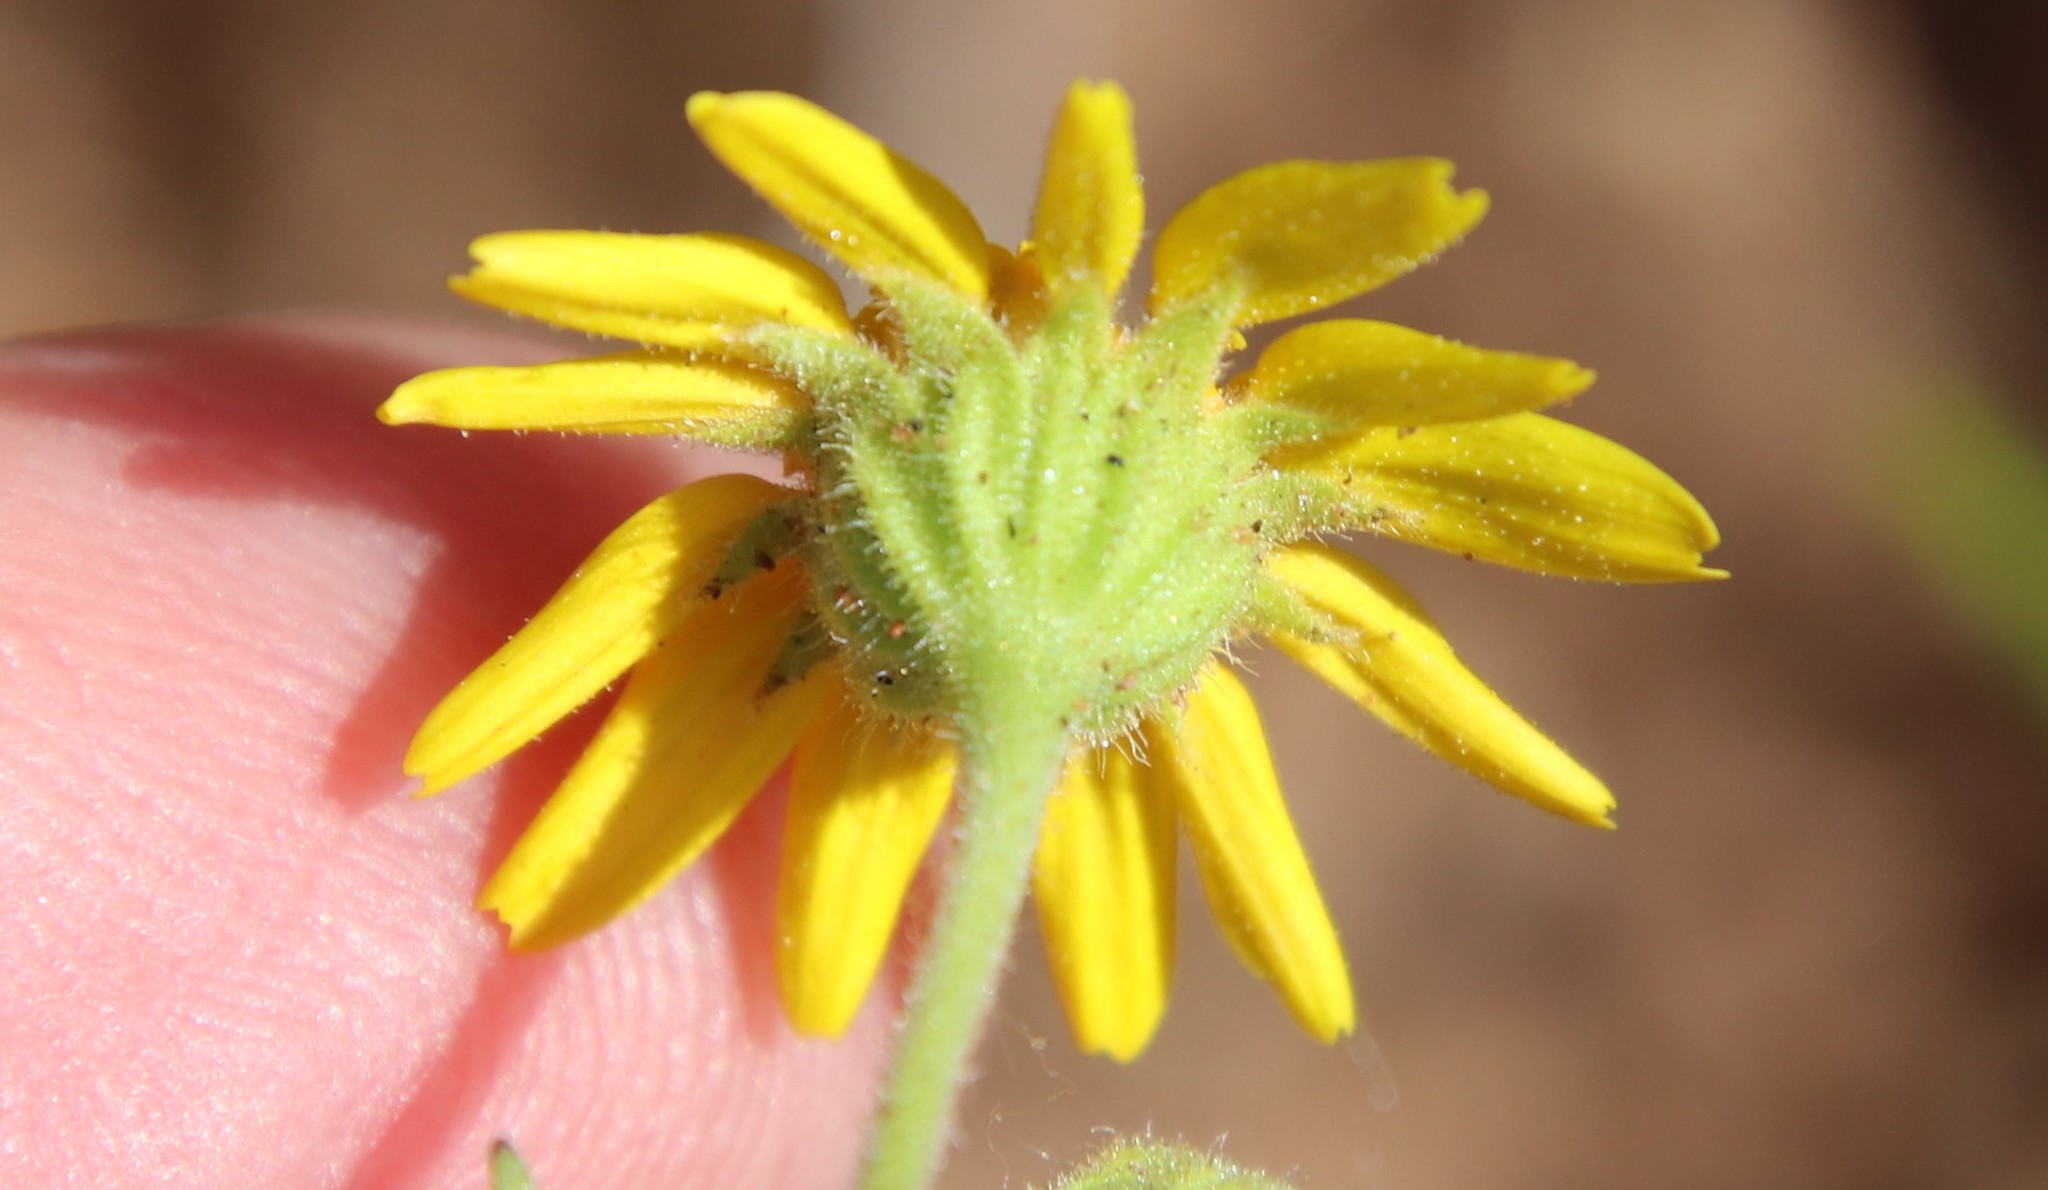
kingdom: Plantae
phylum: Tracheophyta
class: Magnoliopsida
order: Asterales
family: Asteraceae
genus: Lasthenia
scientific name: Lasthenia coronaria
